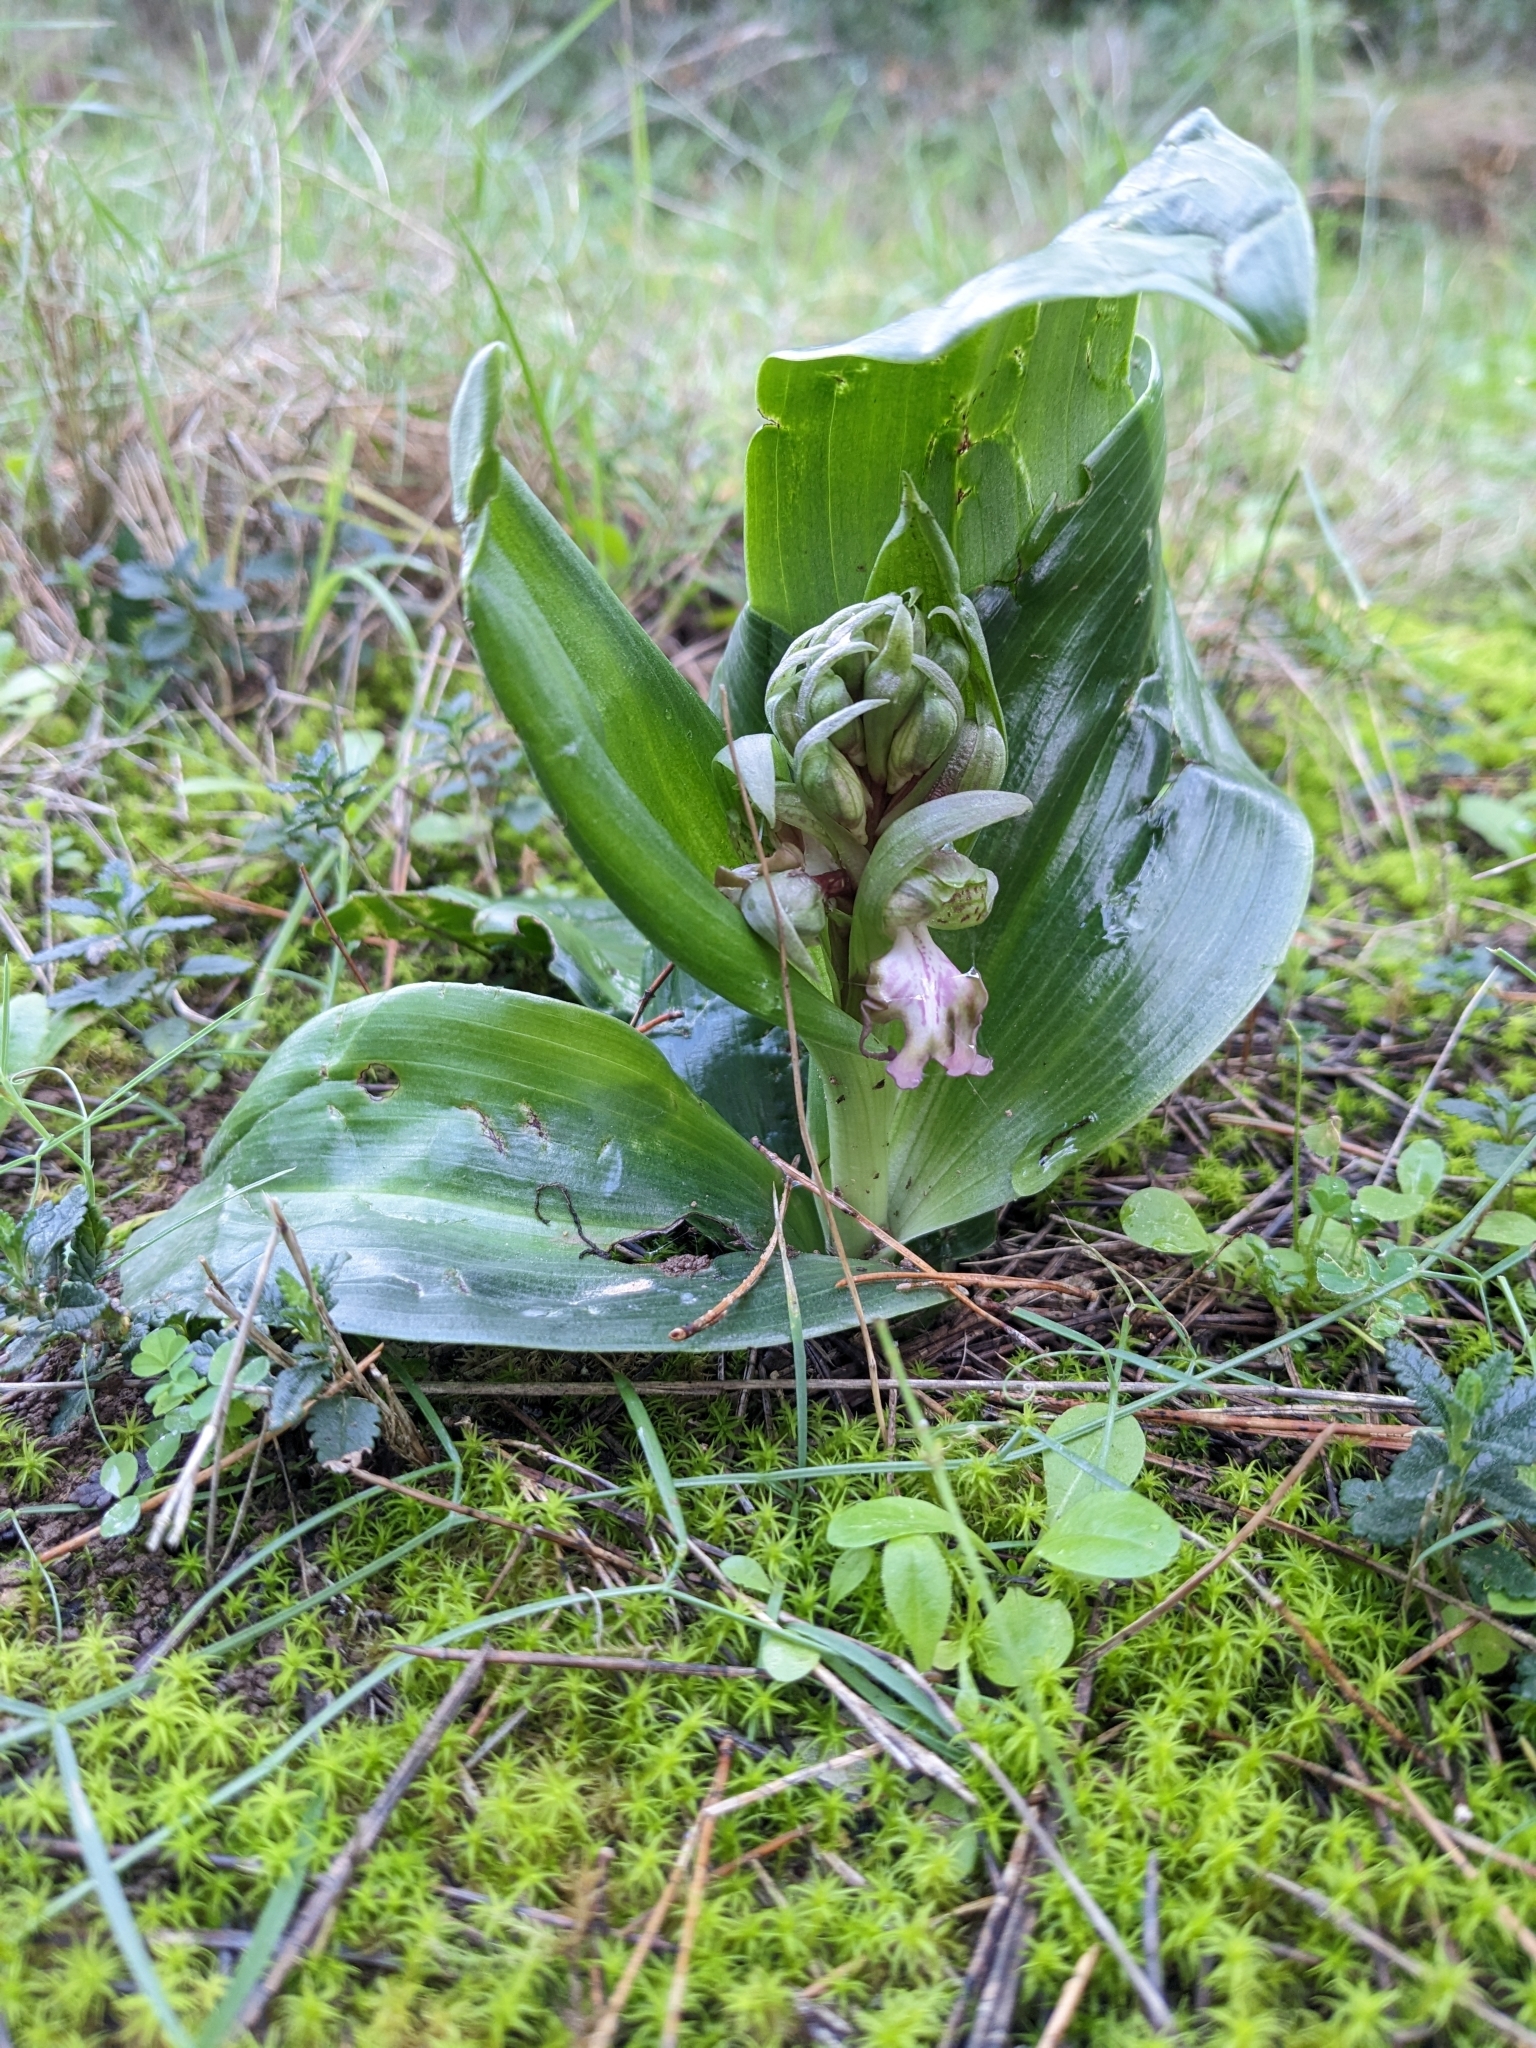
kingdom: Plantae
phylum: Tracheophyta
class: Liliopsida
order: Asparagales
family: Orchidaceae
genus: Himantoglossum
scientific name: Himantoglossum robertianum
